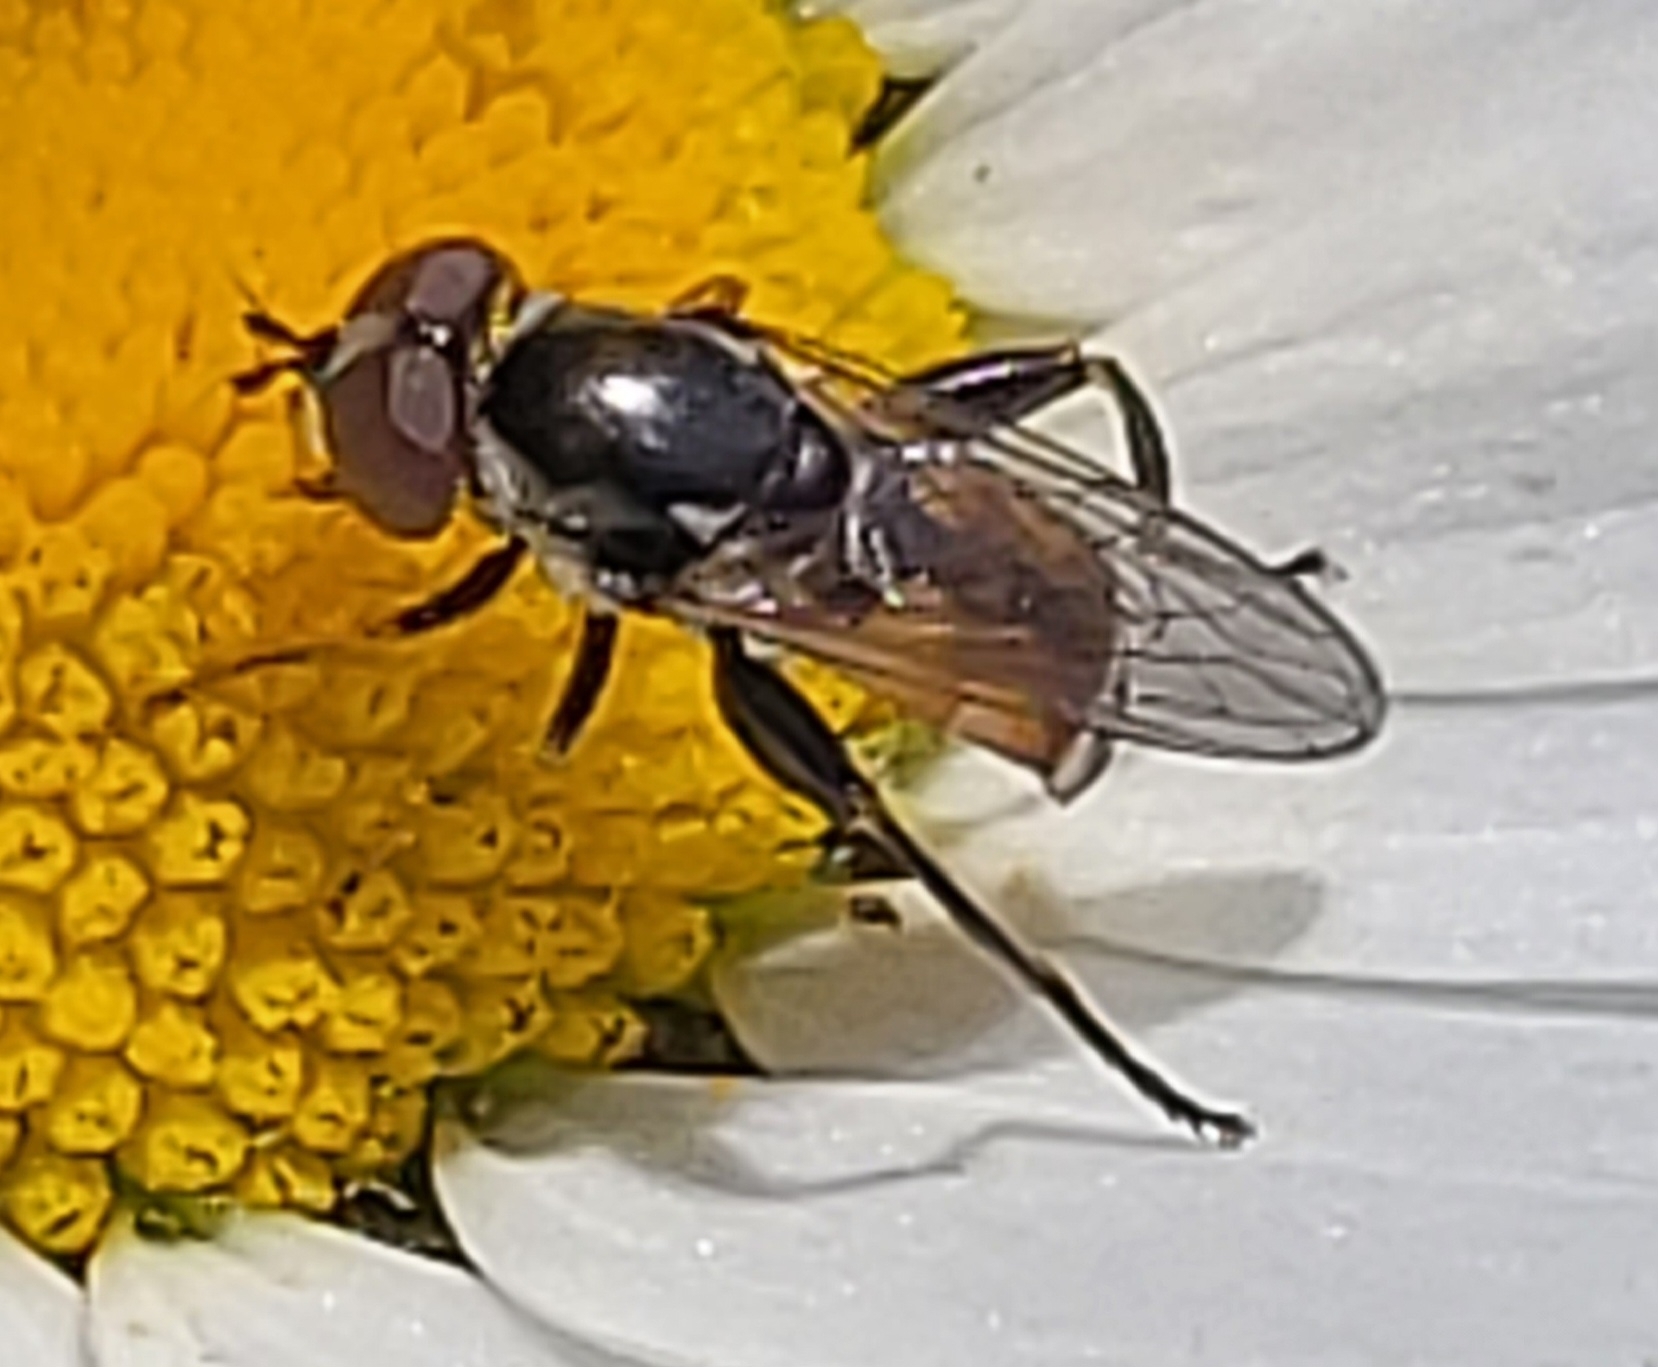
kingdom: Animalia
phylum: Arthropoda
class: Insecta
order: Diptera
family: Syrphidae
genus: Chalcosyrphus
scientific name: Chalcosyrphus nemorum
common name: Dusky-banded forest fly
